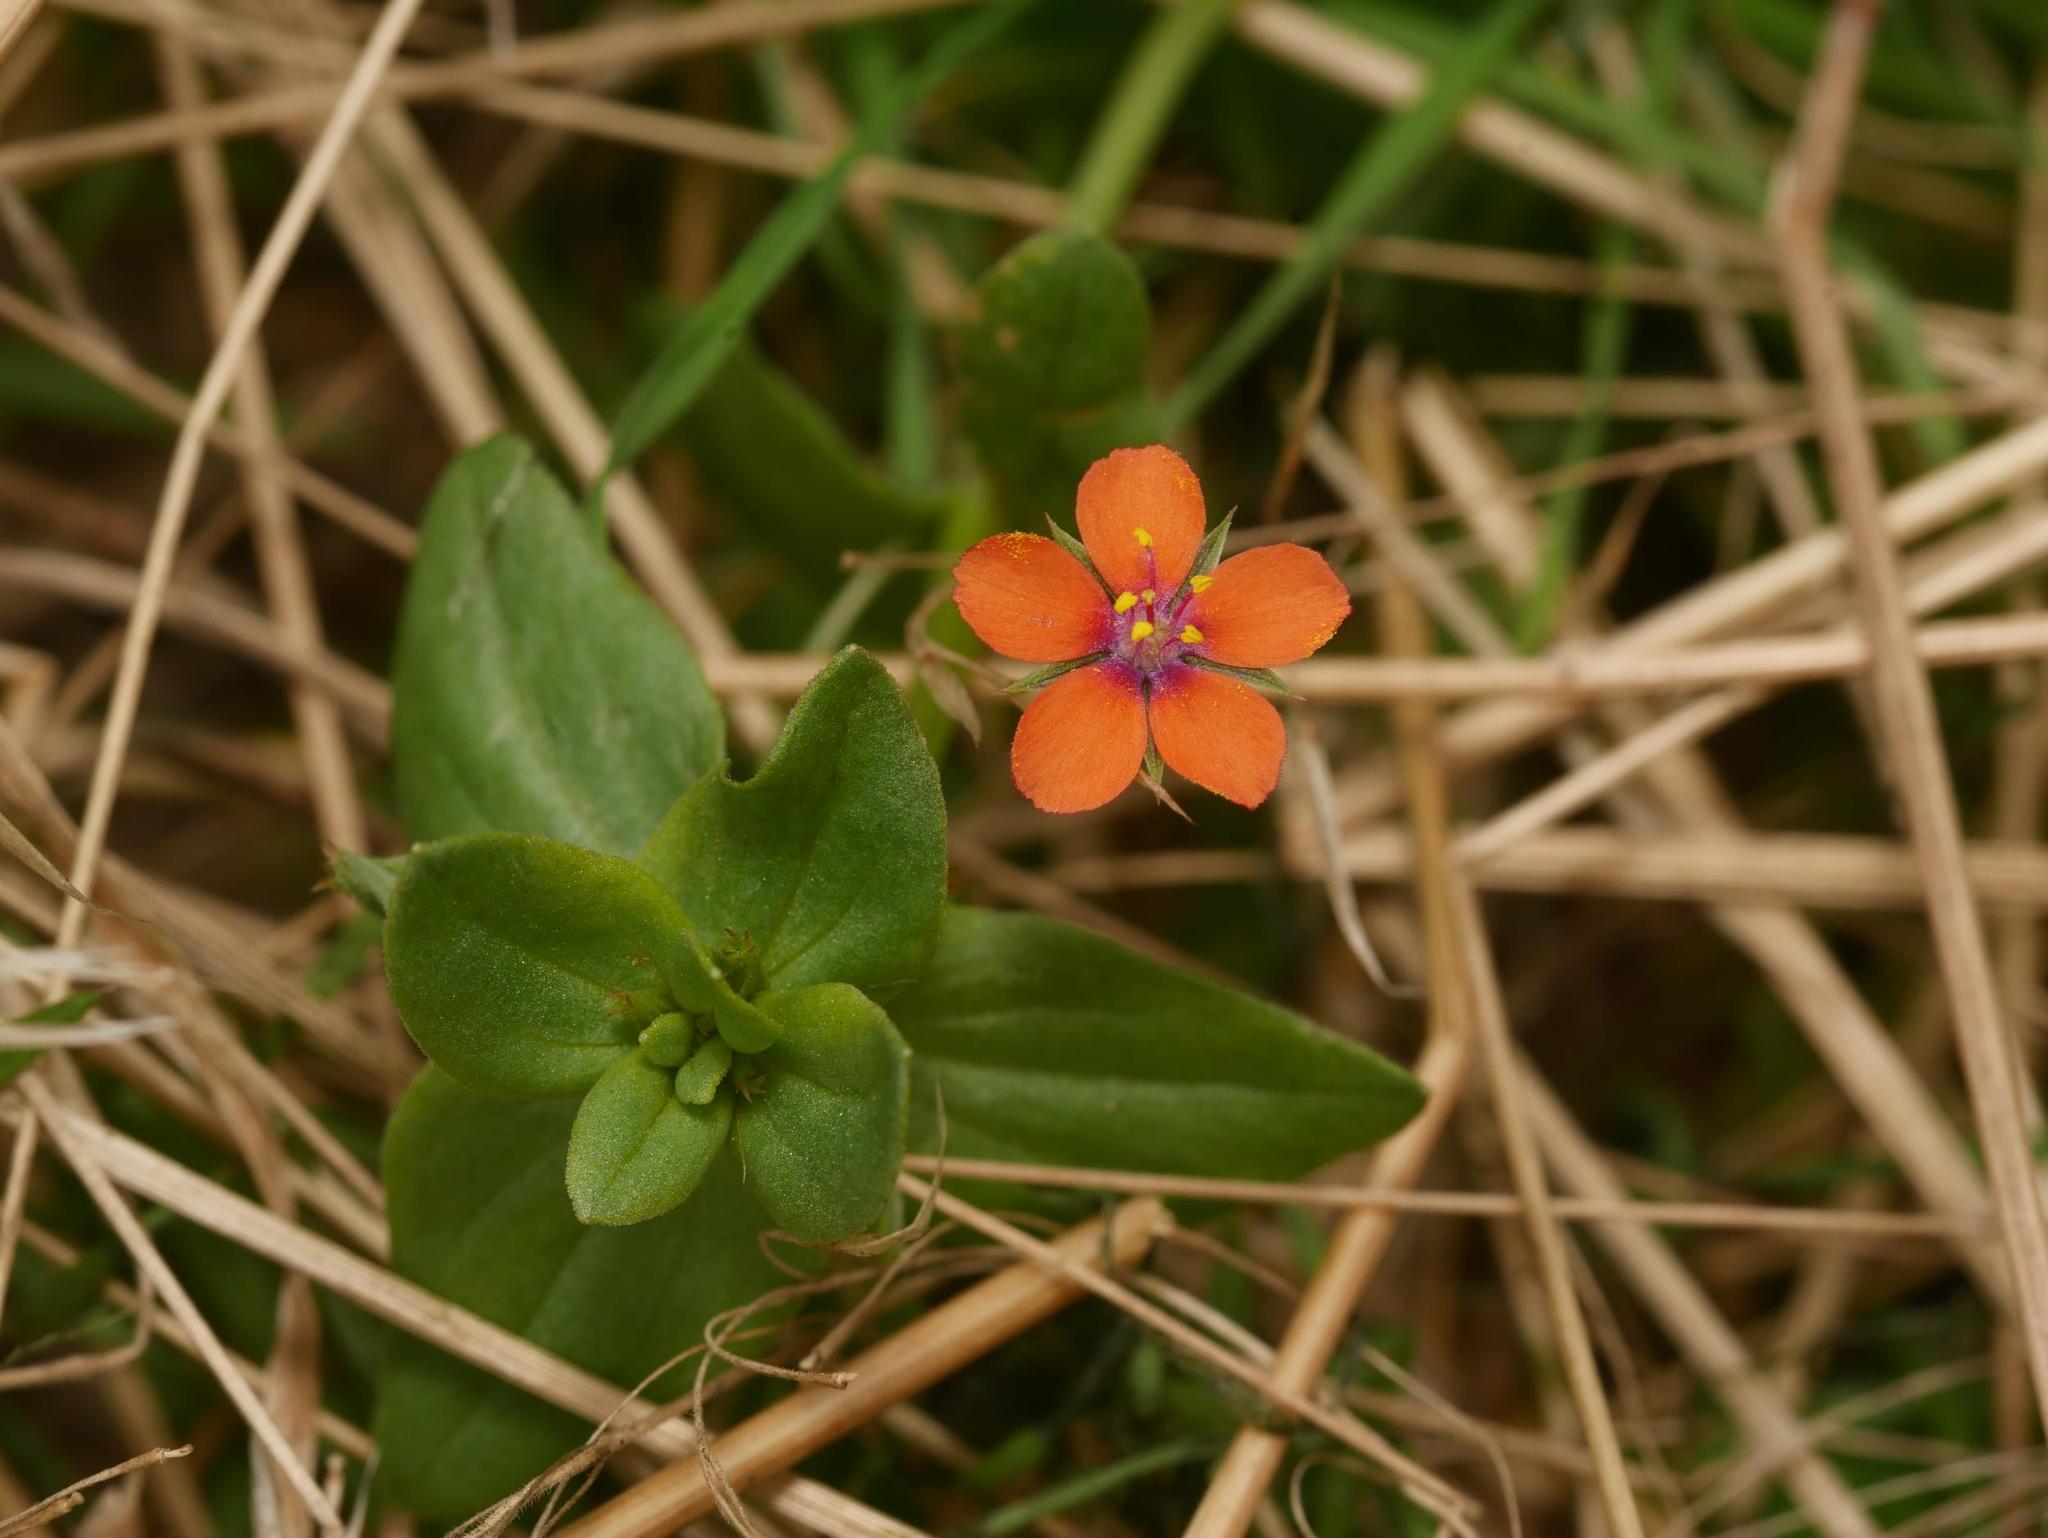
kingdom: Plantae
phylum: Tracheophyta
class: Magnoliopsida
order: Ericales
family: Primulaceae
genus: Lysimachia
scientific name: Lysimachia arvensis
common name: Scarlet pimpernel
